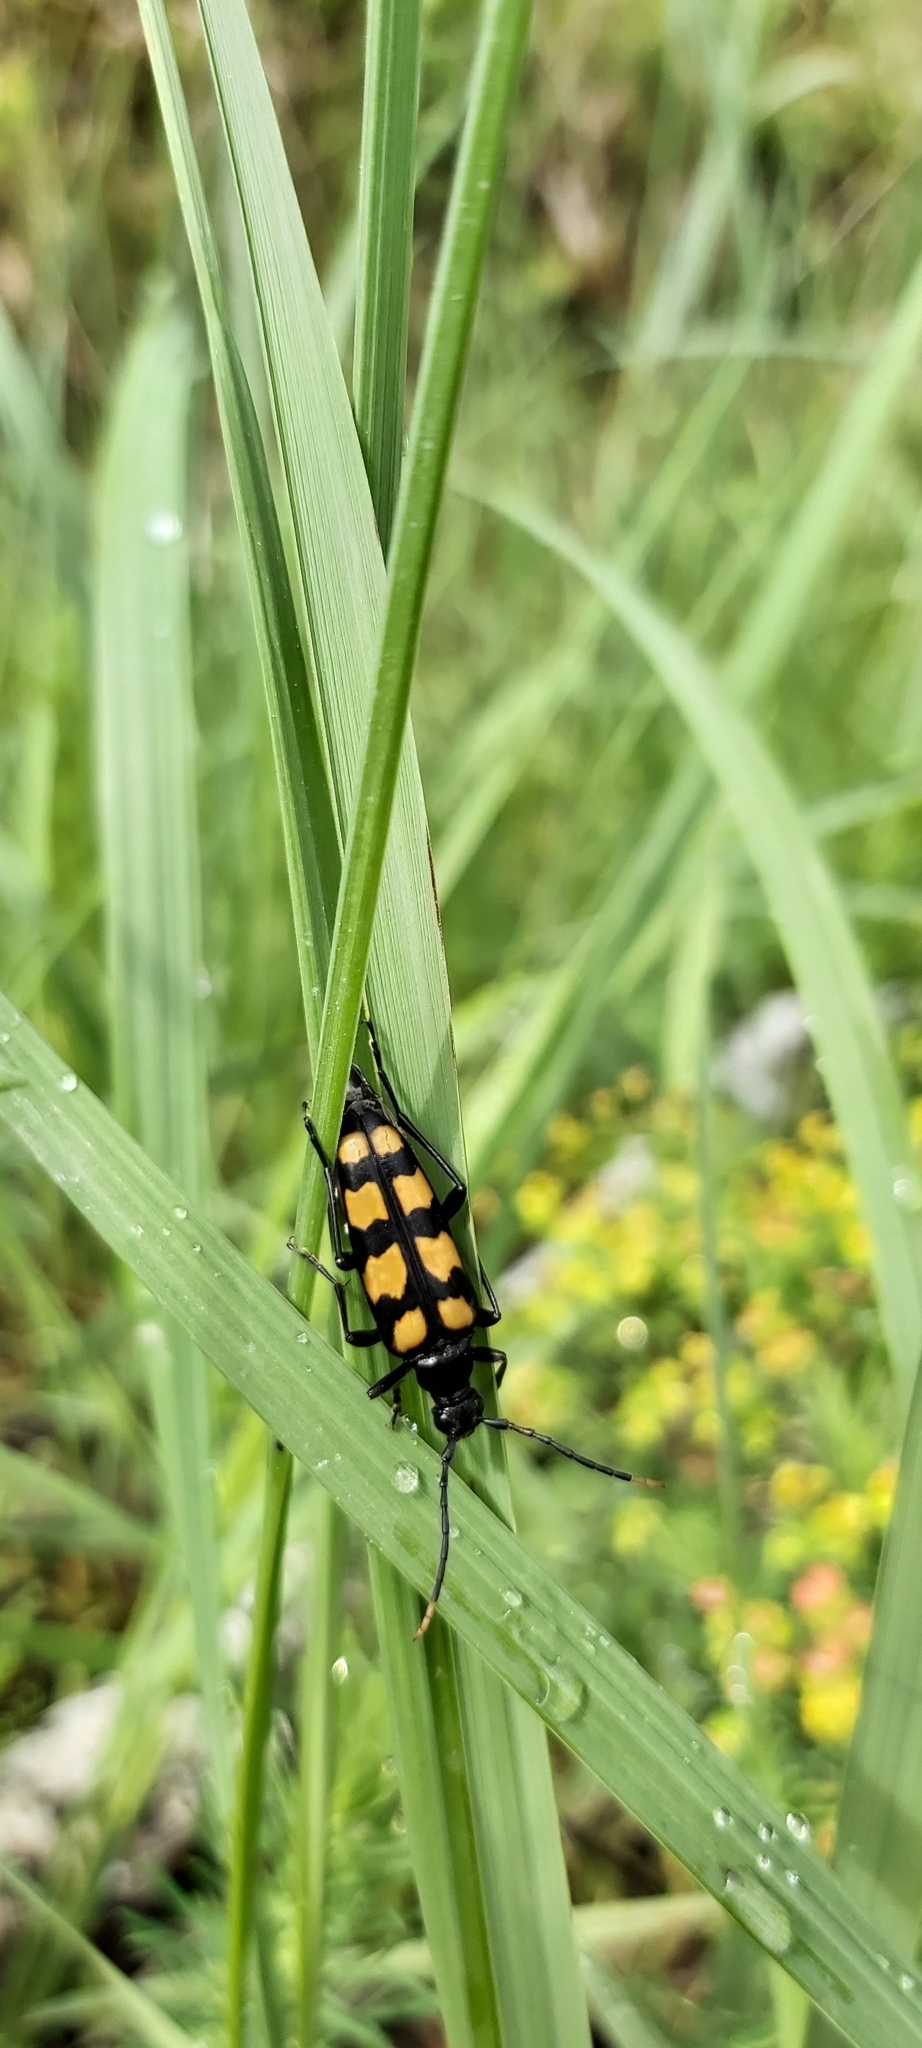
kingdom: Animalia
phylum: Arthropoda
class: Insecta
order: Coleoptera
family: Cerambycidae
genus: Leptura
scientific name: Leptura quadrifasciata
